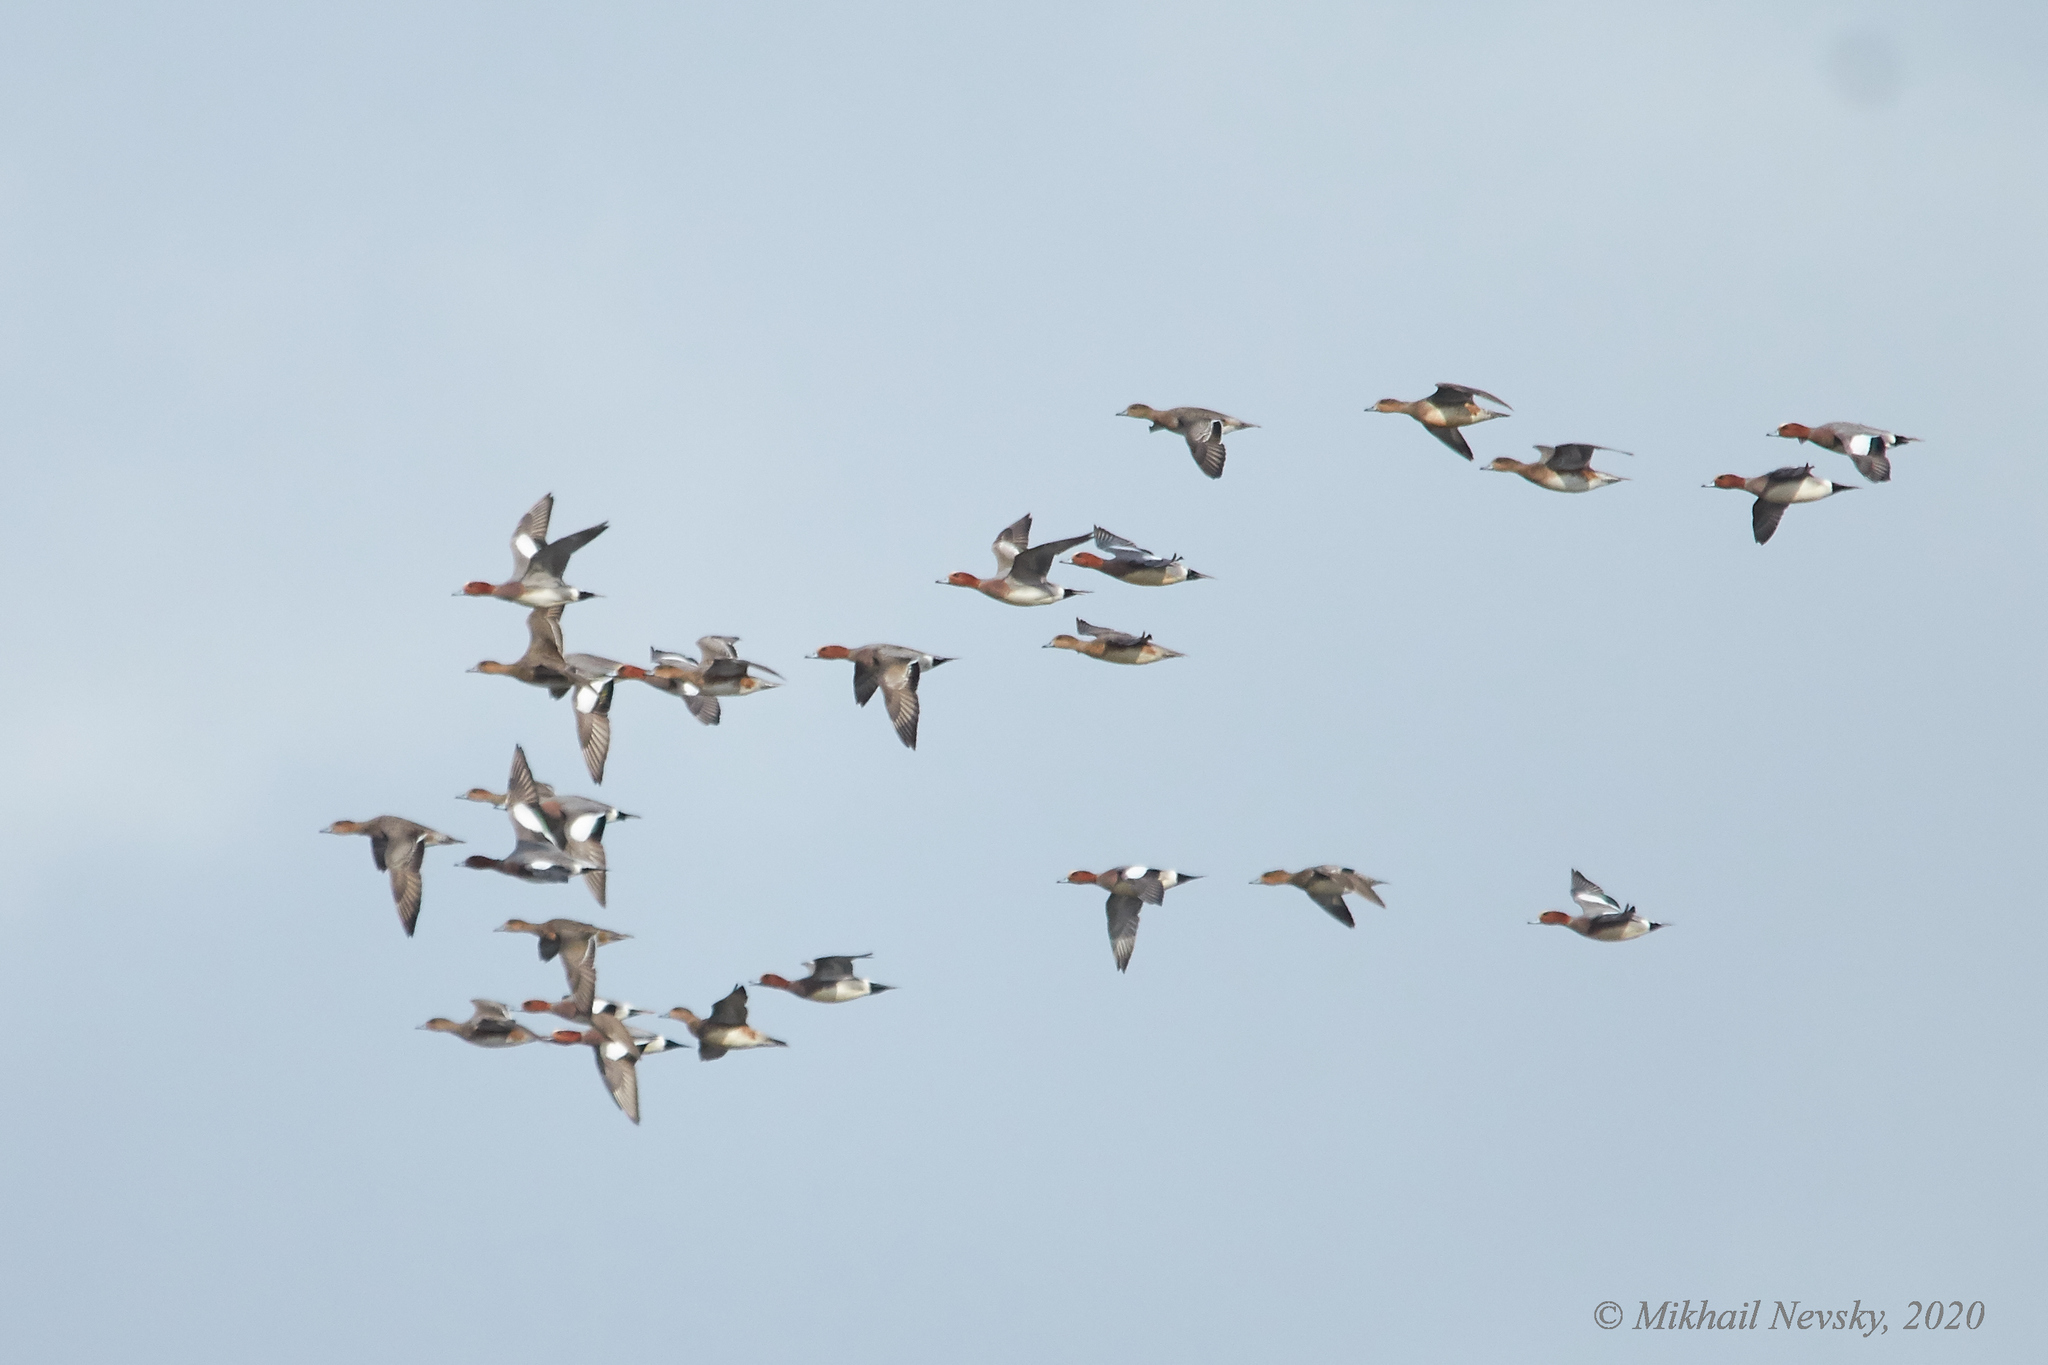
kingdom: Animalia
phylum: Chordata
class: Aves
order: Anseriformes
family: Anatidae
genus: Mareca
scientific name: Mareca penelope
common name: Eurasian wigeon
